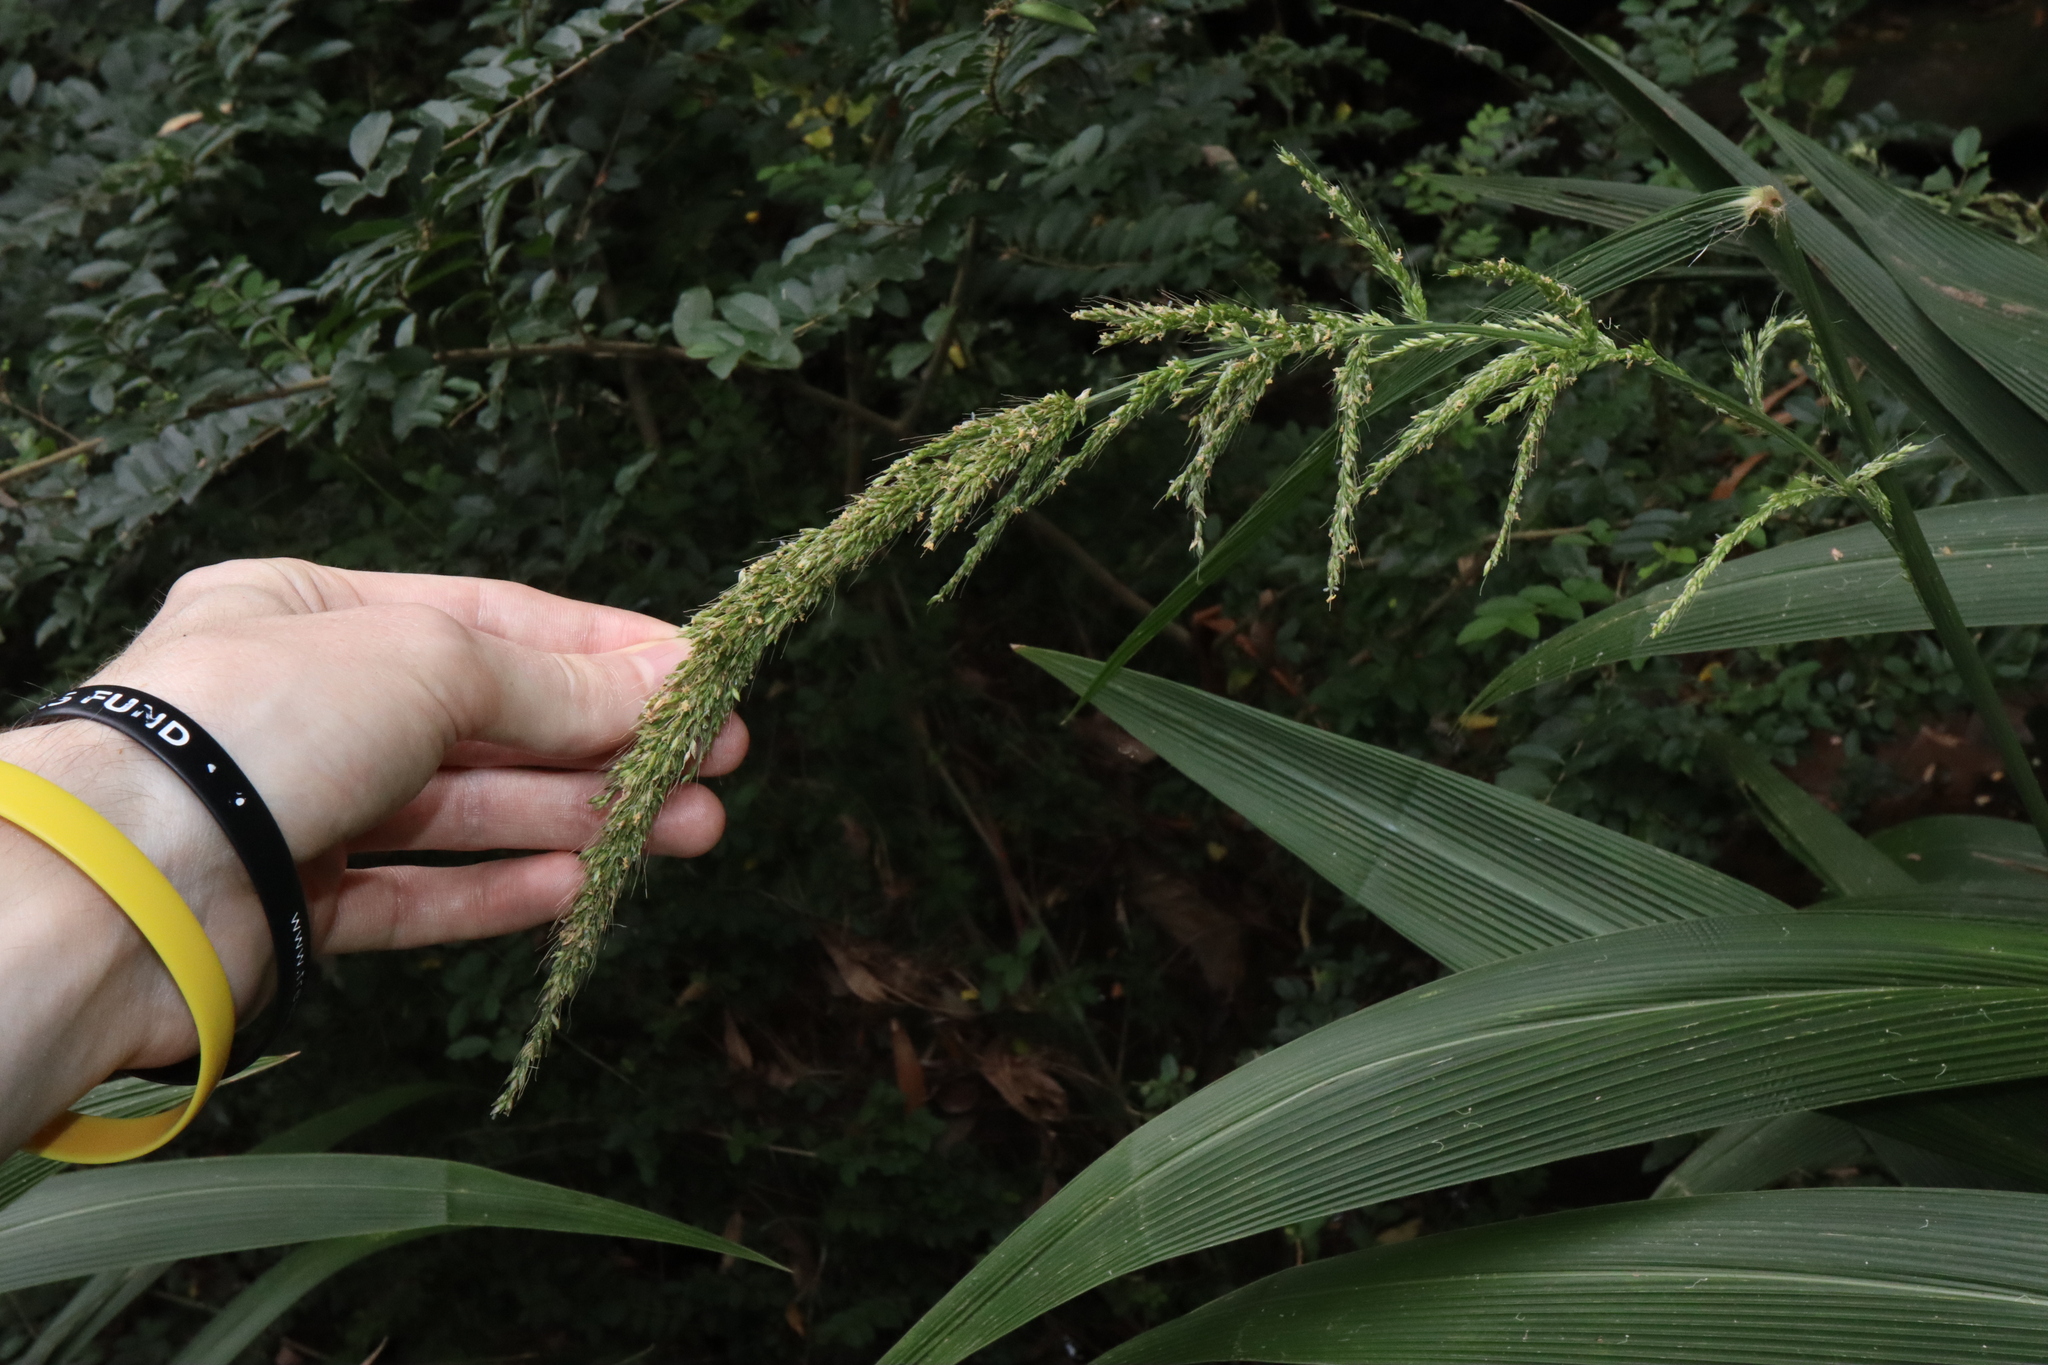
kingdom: Plantae
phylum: Tracheophyta
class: Liliopsida
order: Poales
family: Poaceae
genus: Setaria
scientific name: Setaria palmifolia
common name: Broadleaved bristlegrass
